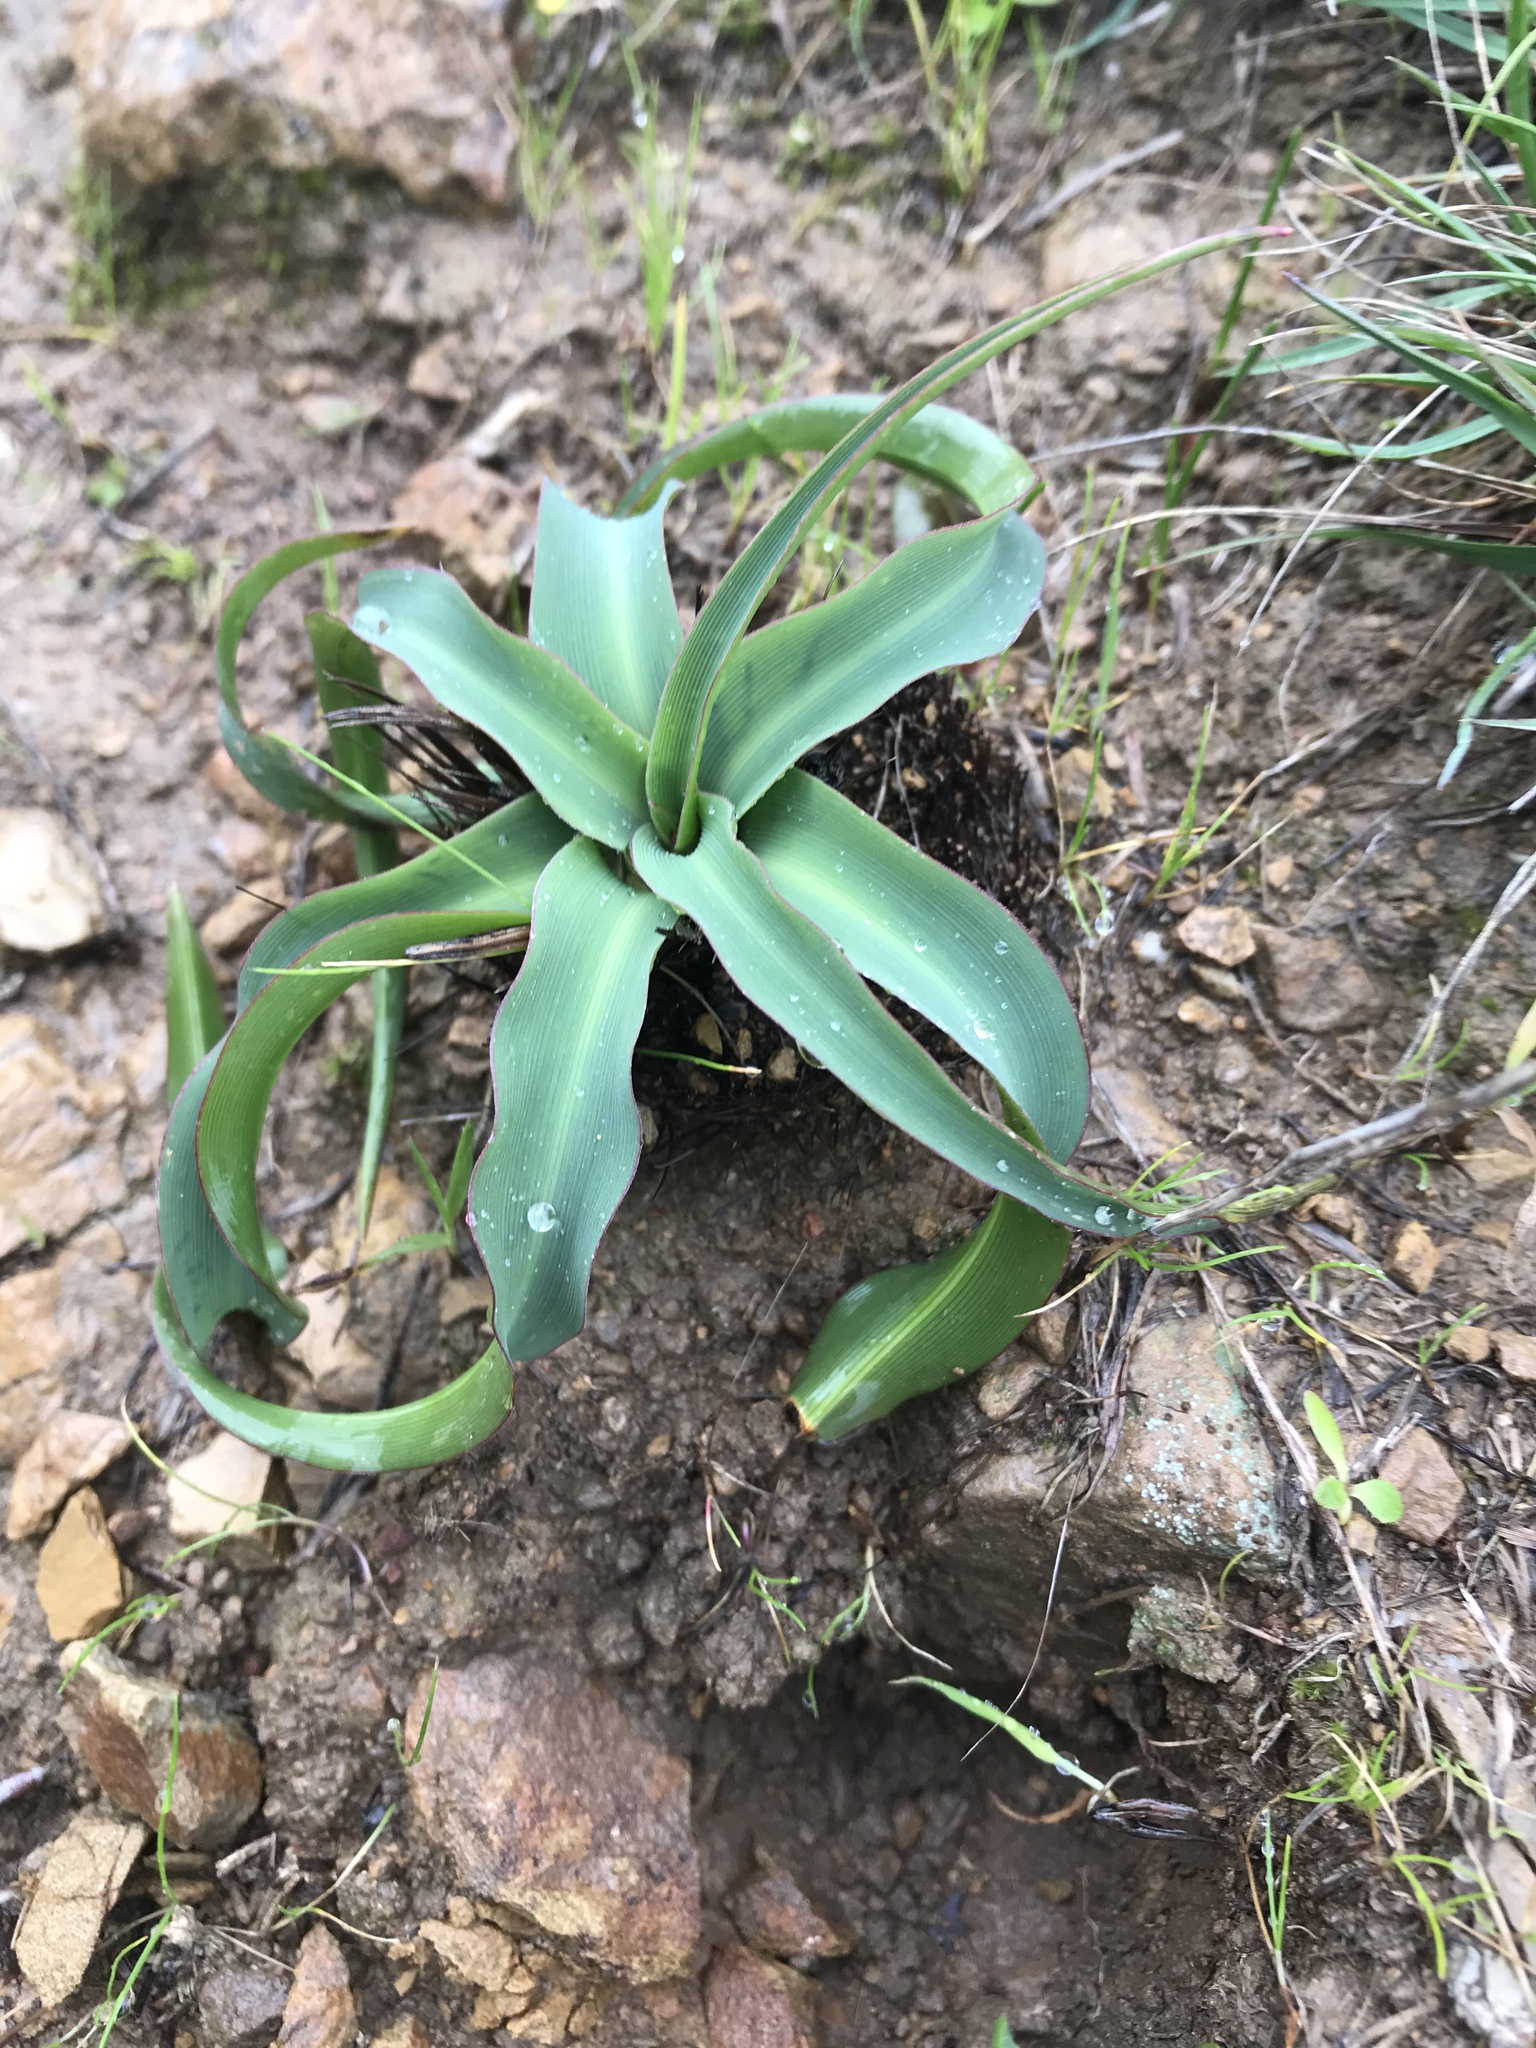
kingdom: Plantae
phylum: Tracheophyta
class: Liliopsida
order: Asparagales
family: Asparagaceae
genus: Chlorogalum
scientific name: Chlorogalum pomeridianum
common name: Amole
